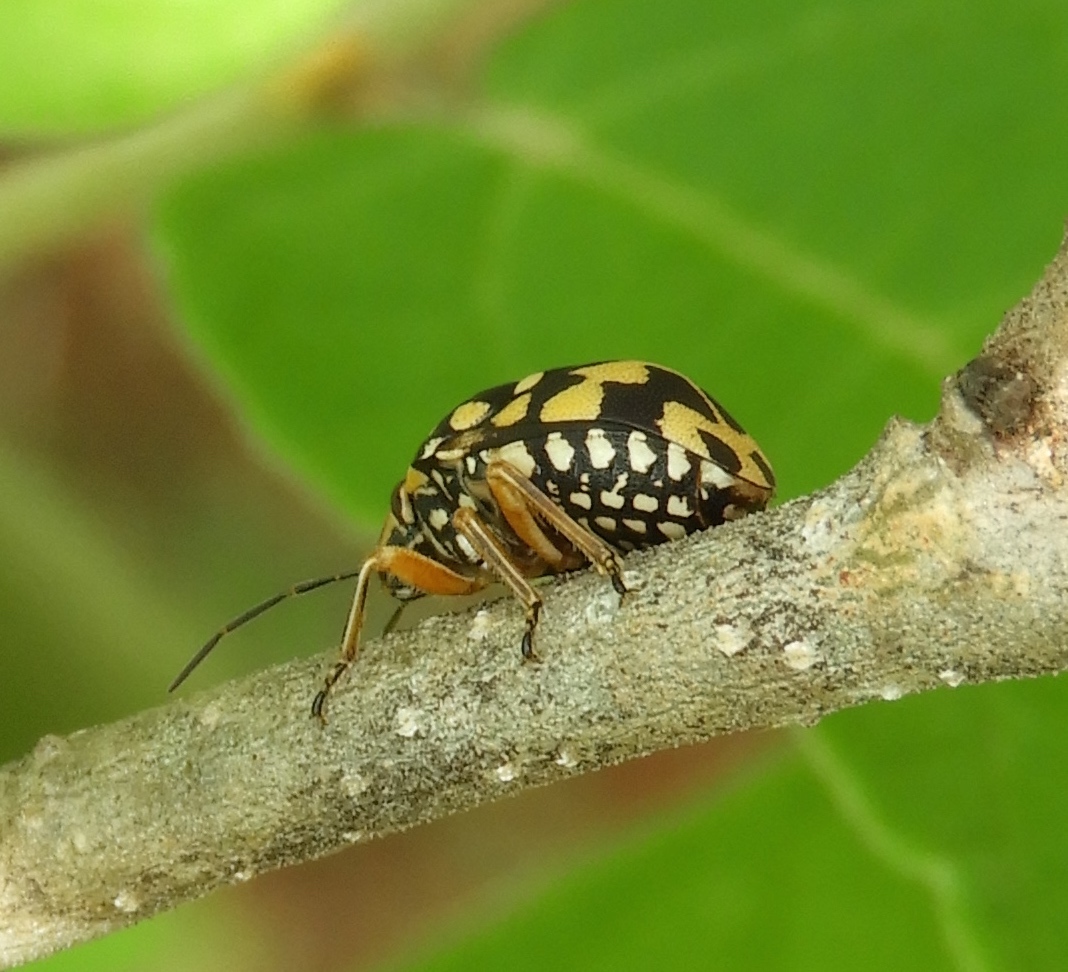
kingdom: Animalia
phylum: Arthropoda
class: Insecta
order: Hemiptera
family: Scutelleridae
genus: Orsilochides
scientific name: Orsilochides
